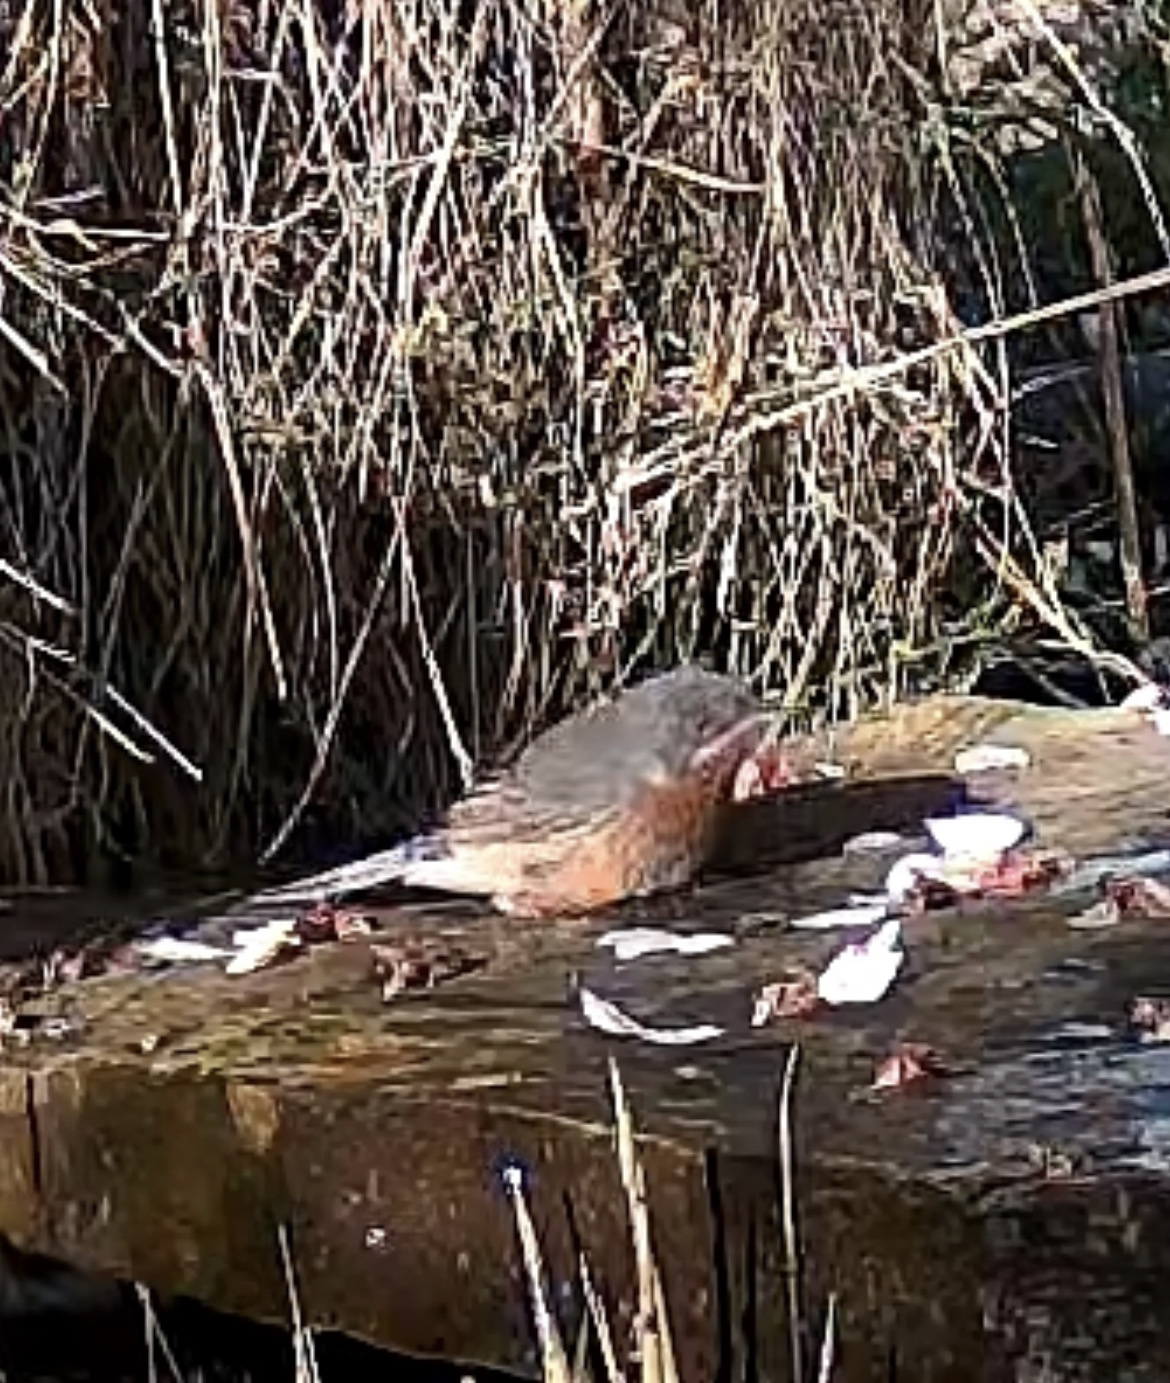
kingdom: Animalia
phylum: Chordata
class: Aves
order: Passeriformes
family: Sylviidae
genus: Curruca
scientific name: Curruca iberiae
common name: Western subalpine warbler
